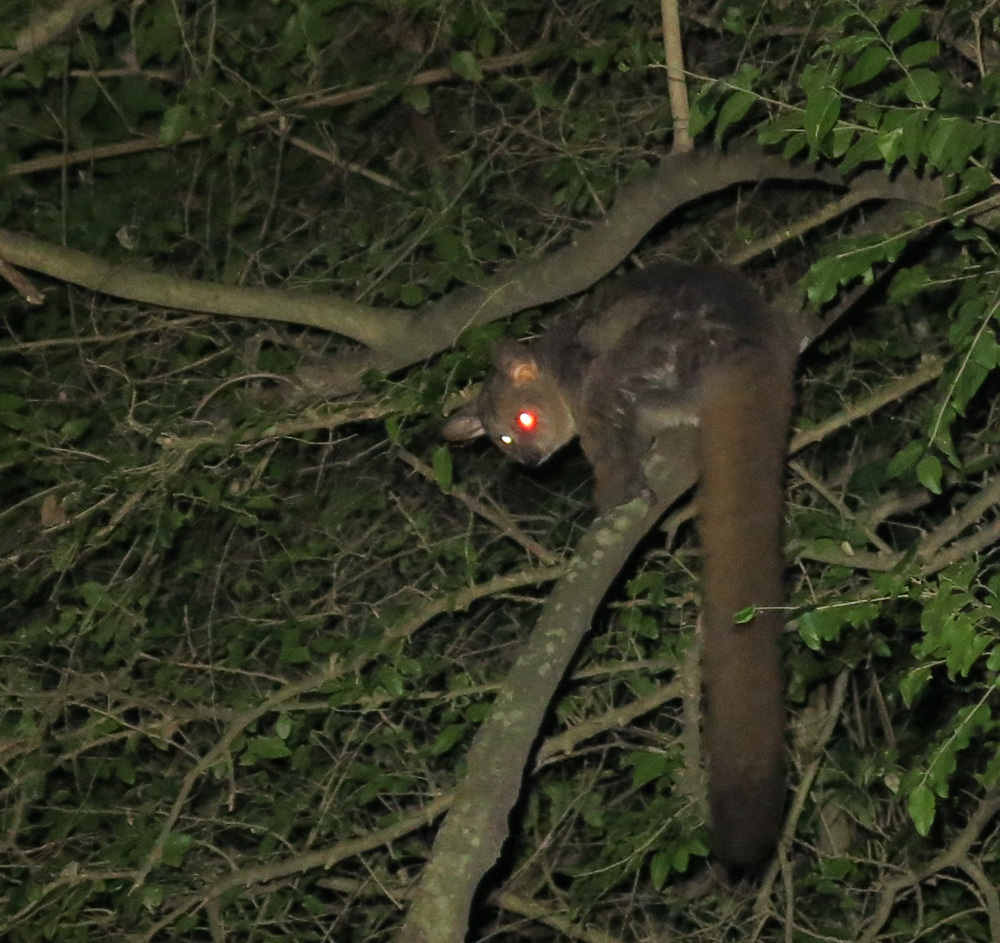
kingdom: Animalia
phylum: Chordata
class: Mammalia
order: Primates
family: Galagidae
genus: Otolemur
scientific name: Otolemur crassicaudatus
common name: Brown greater galago
